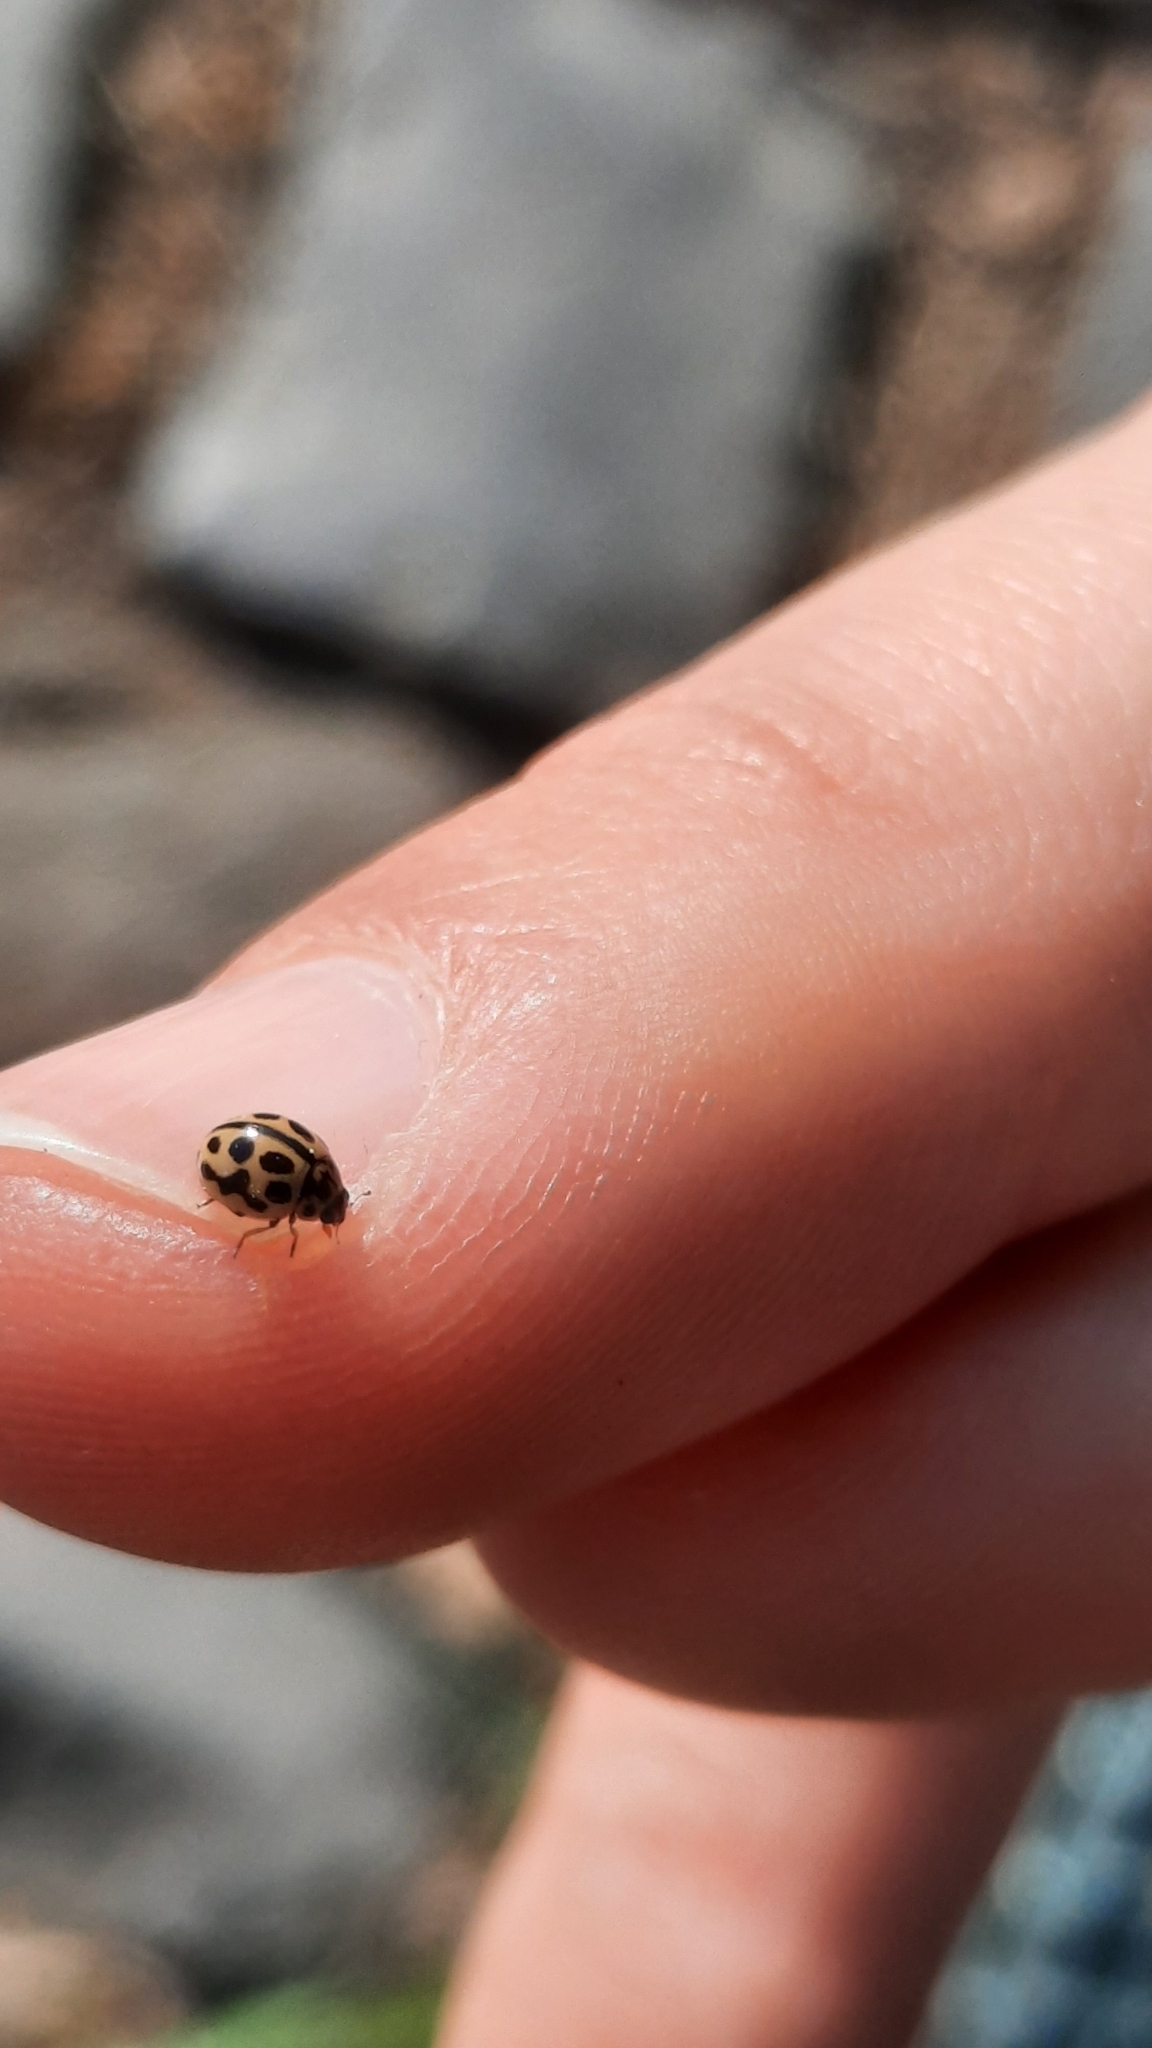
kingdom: Animalia
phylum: Arthropoda
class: Insecta
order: Coleoptera
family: Coccinellidae
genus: Tytthaspis
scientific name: Tytthaspis sedecimpunctata
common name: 16-spot ladybird
